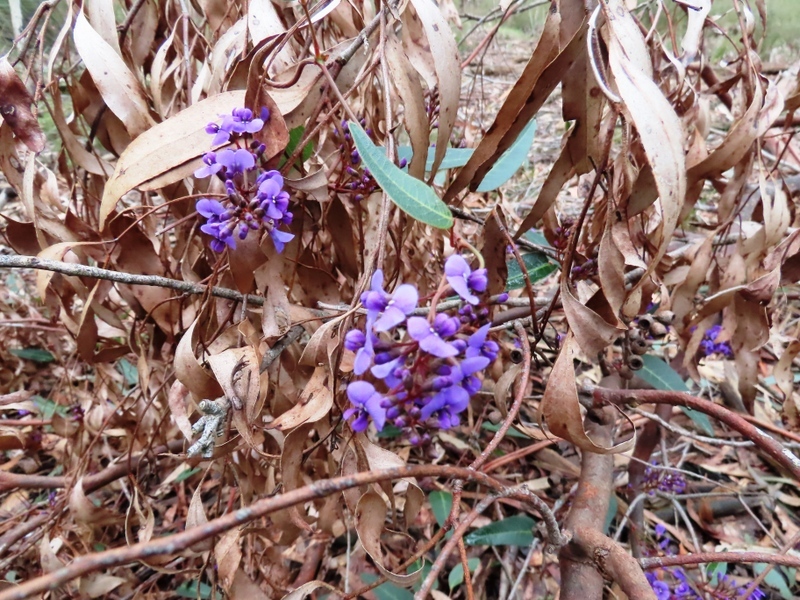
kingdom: Plantae
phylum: Tracheophyta
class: Magnoliopsida
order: Fabales
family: Fabaceae
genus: Hardenbergia
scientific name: Hardenbergia violacea
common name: Coral-pea
